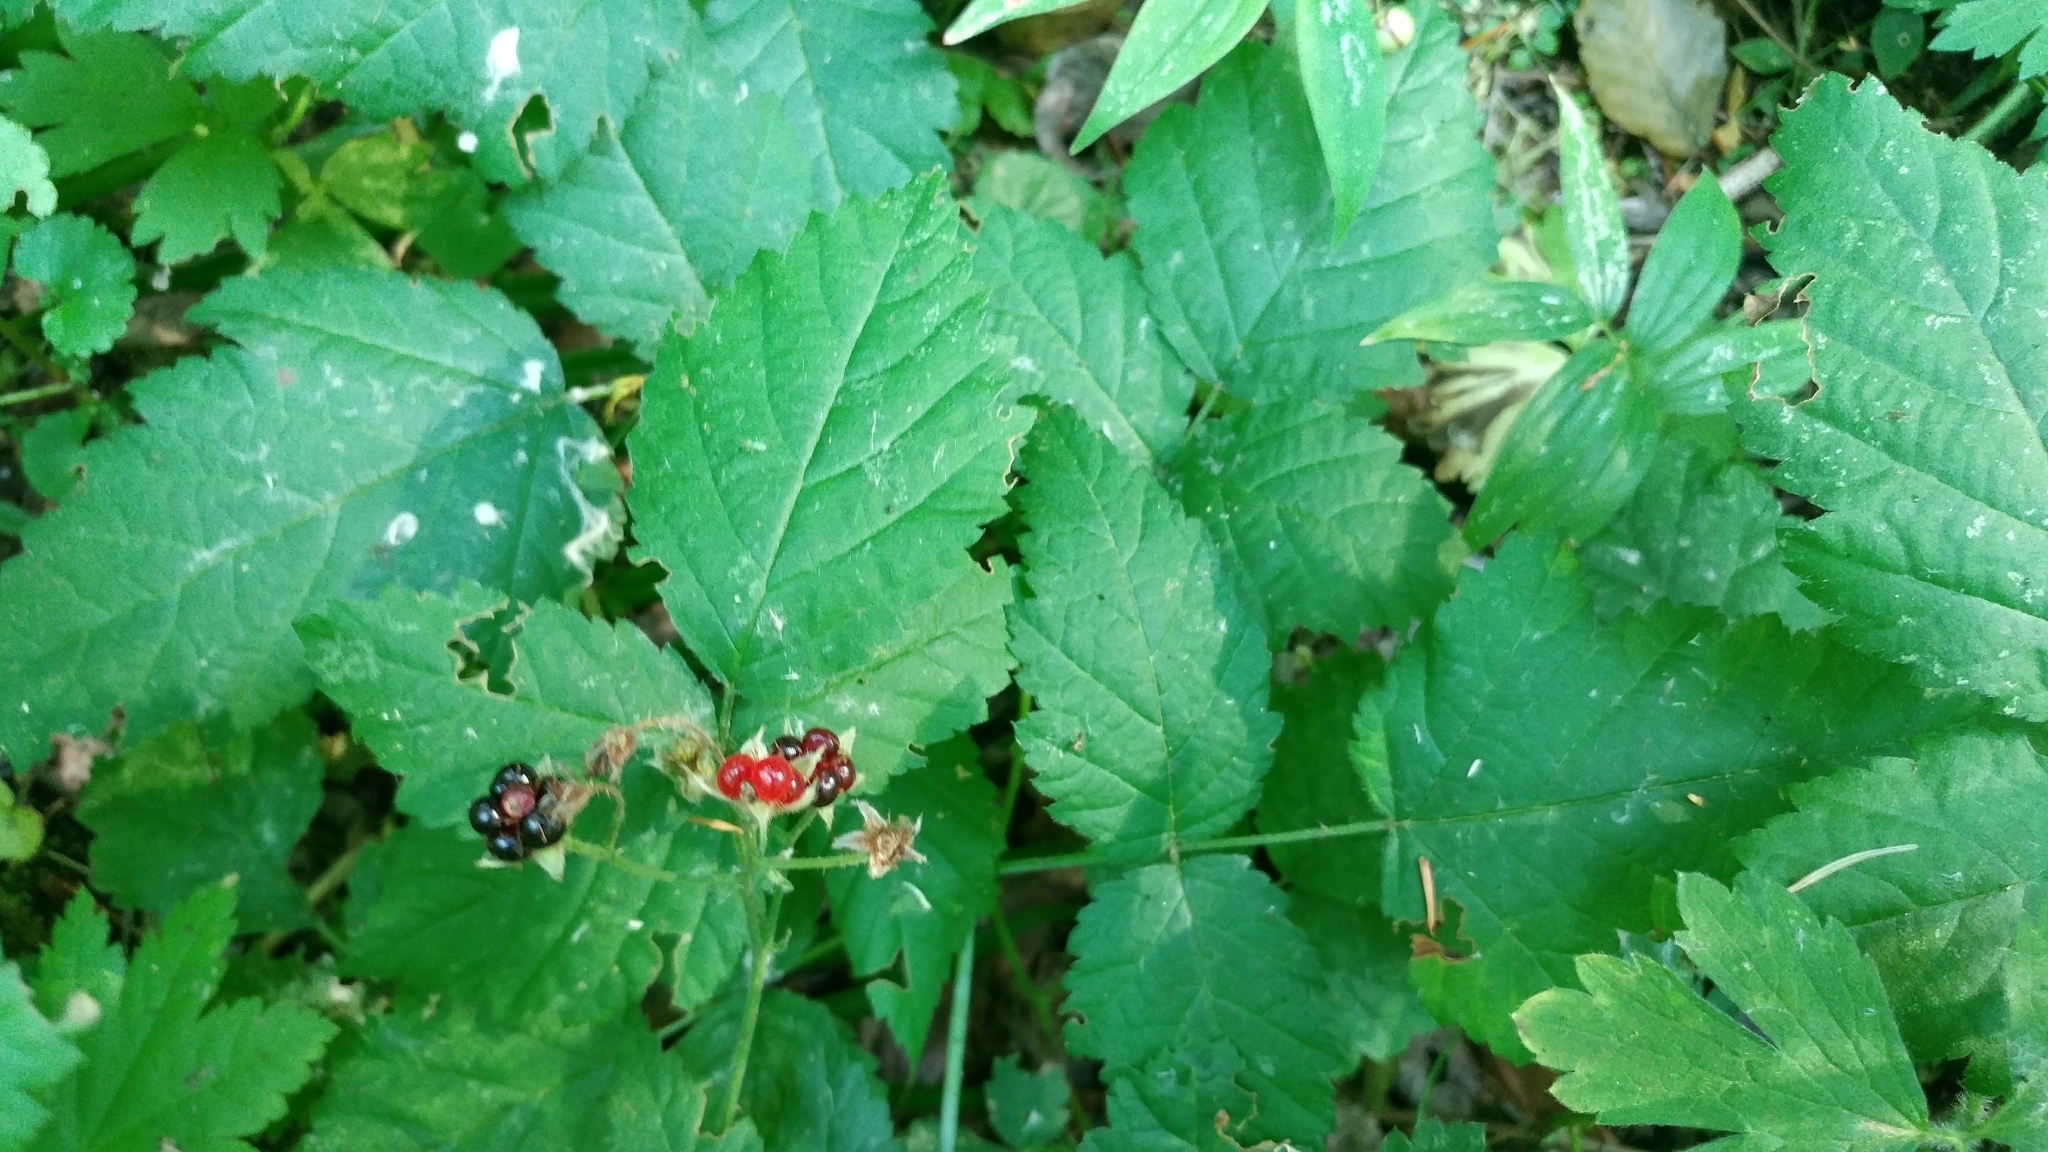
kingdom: Plantae
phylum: Tracheophyta
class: Magnoliopsida
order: Rosales
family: Rosaceae
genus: Rubus
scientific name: Rubus ursinus
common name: Pacific blackberry
